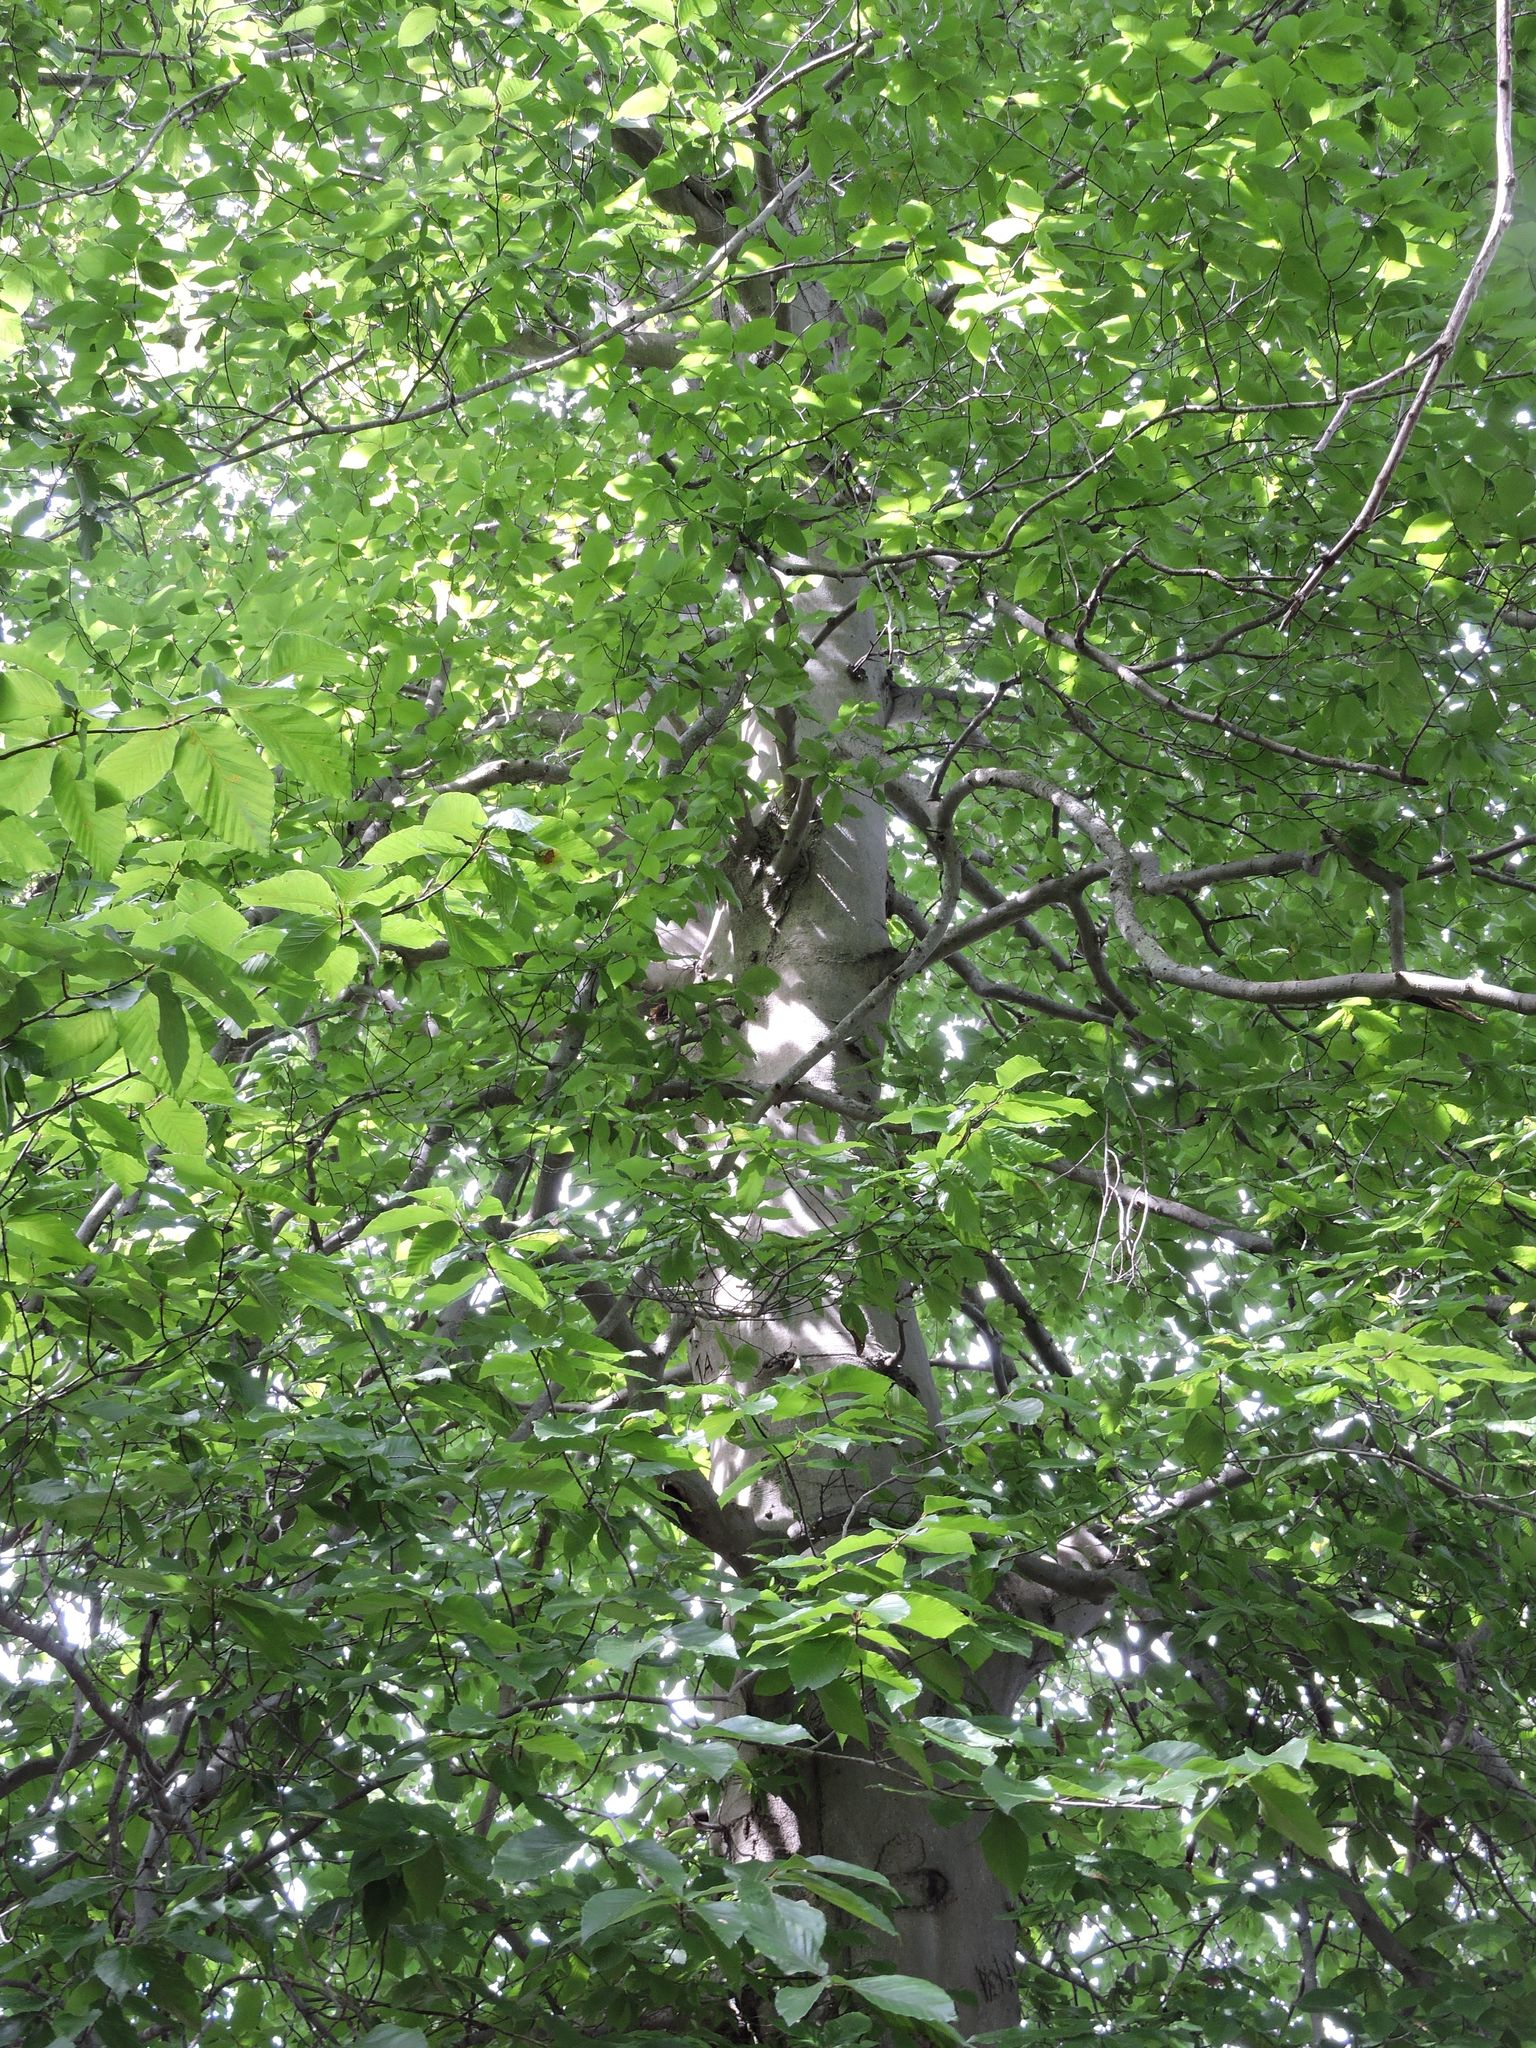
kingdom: Plantae
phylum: Tracheophyta
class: Magnoliopsida
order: Fagales
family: Fagaceae
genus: Fagus
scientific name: Fagus grandifolia
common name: American beech
